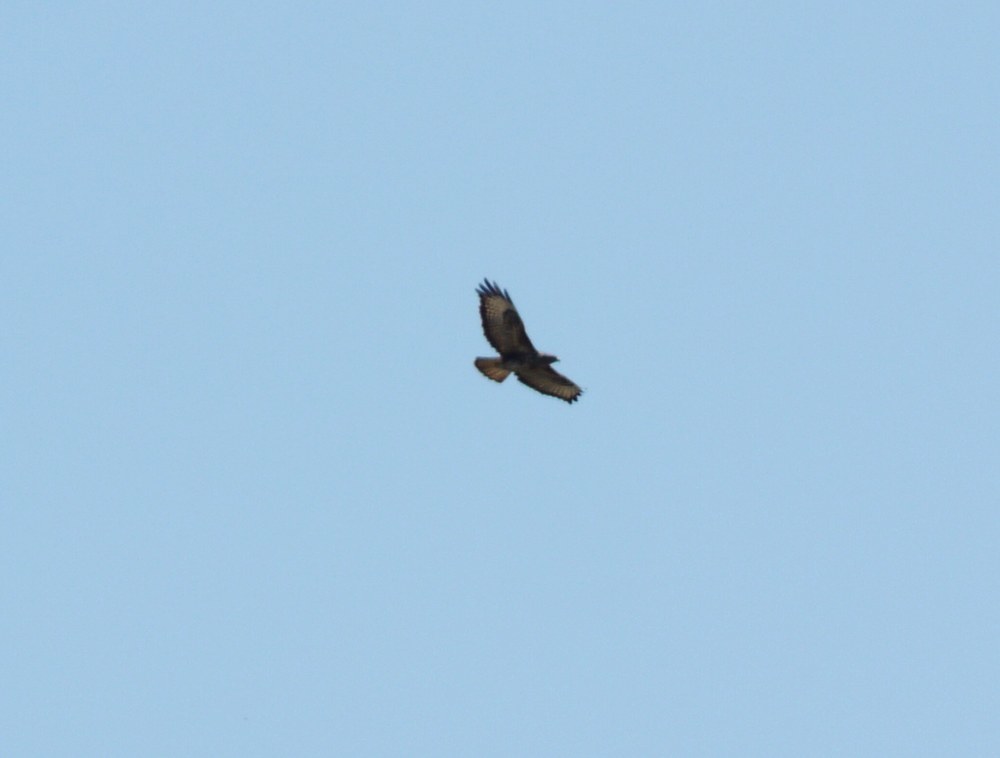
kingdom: Animalia
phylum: Chordata
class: Aves
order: Accipitriformes
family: Accipitridae
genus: Buteo
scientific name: Buteo buteo
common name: Common buzzard
